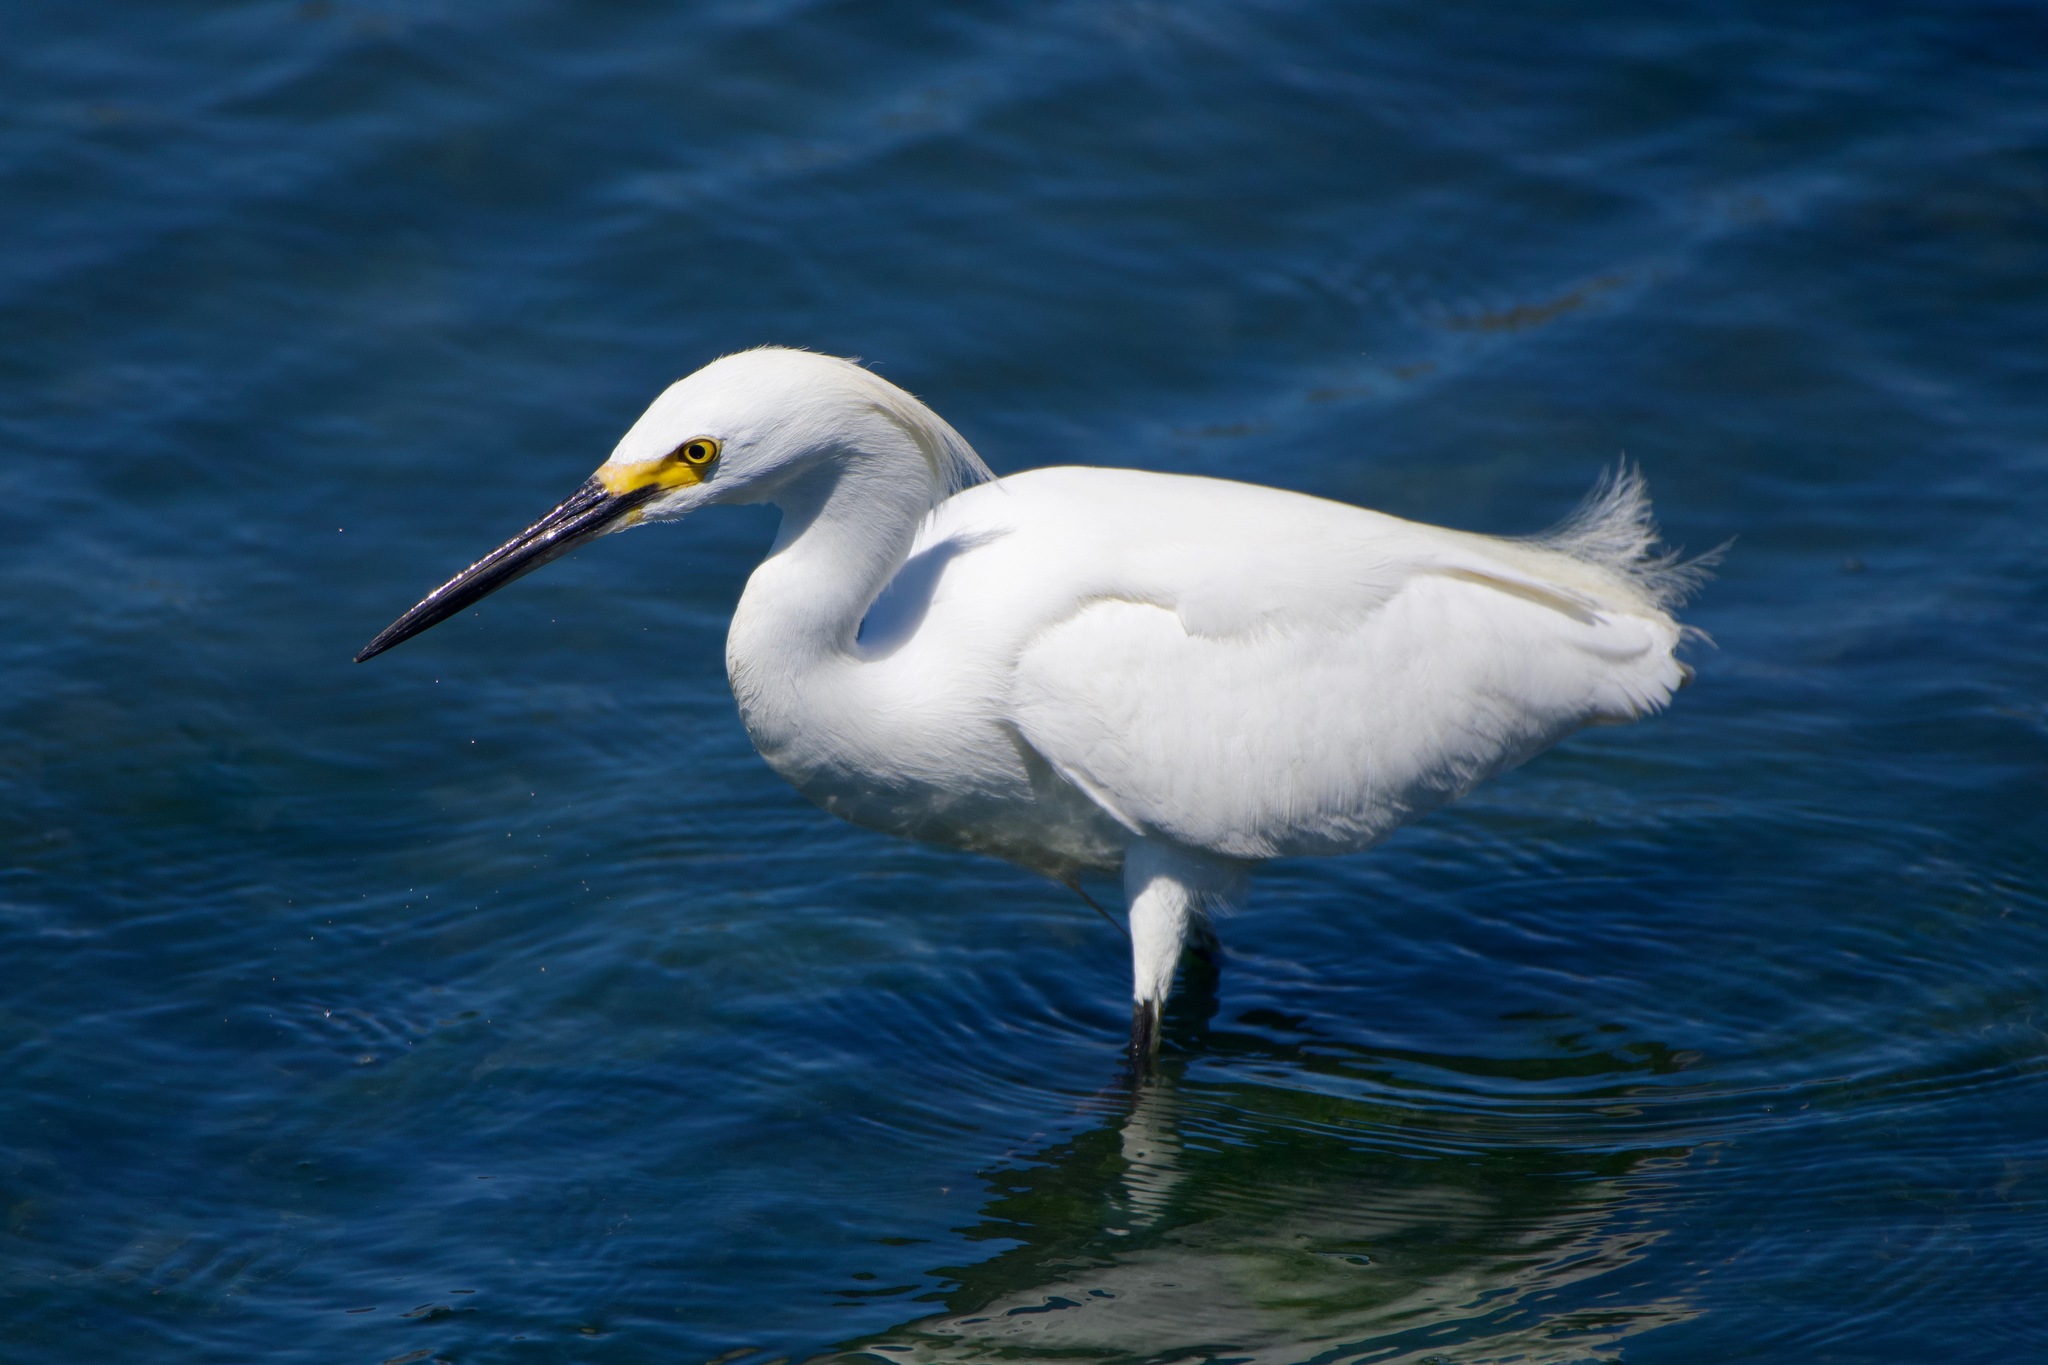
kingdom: Animalia
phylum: Chordata
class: Aves
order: Pelecaniformes
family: Ardeidae
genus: Egretta
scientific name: Egretta thula
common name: Snowy egret
